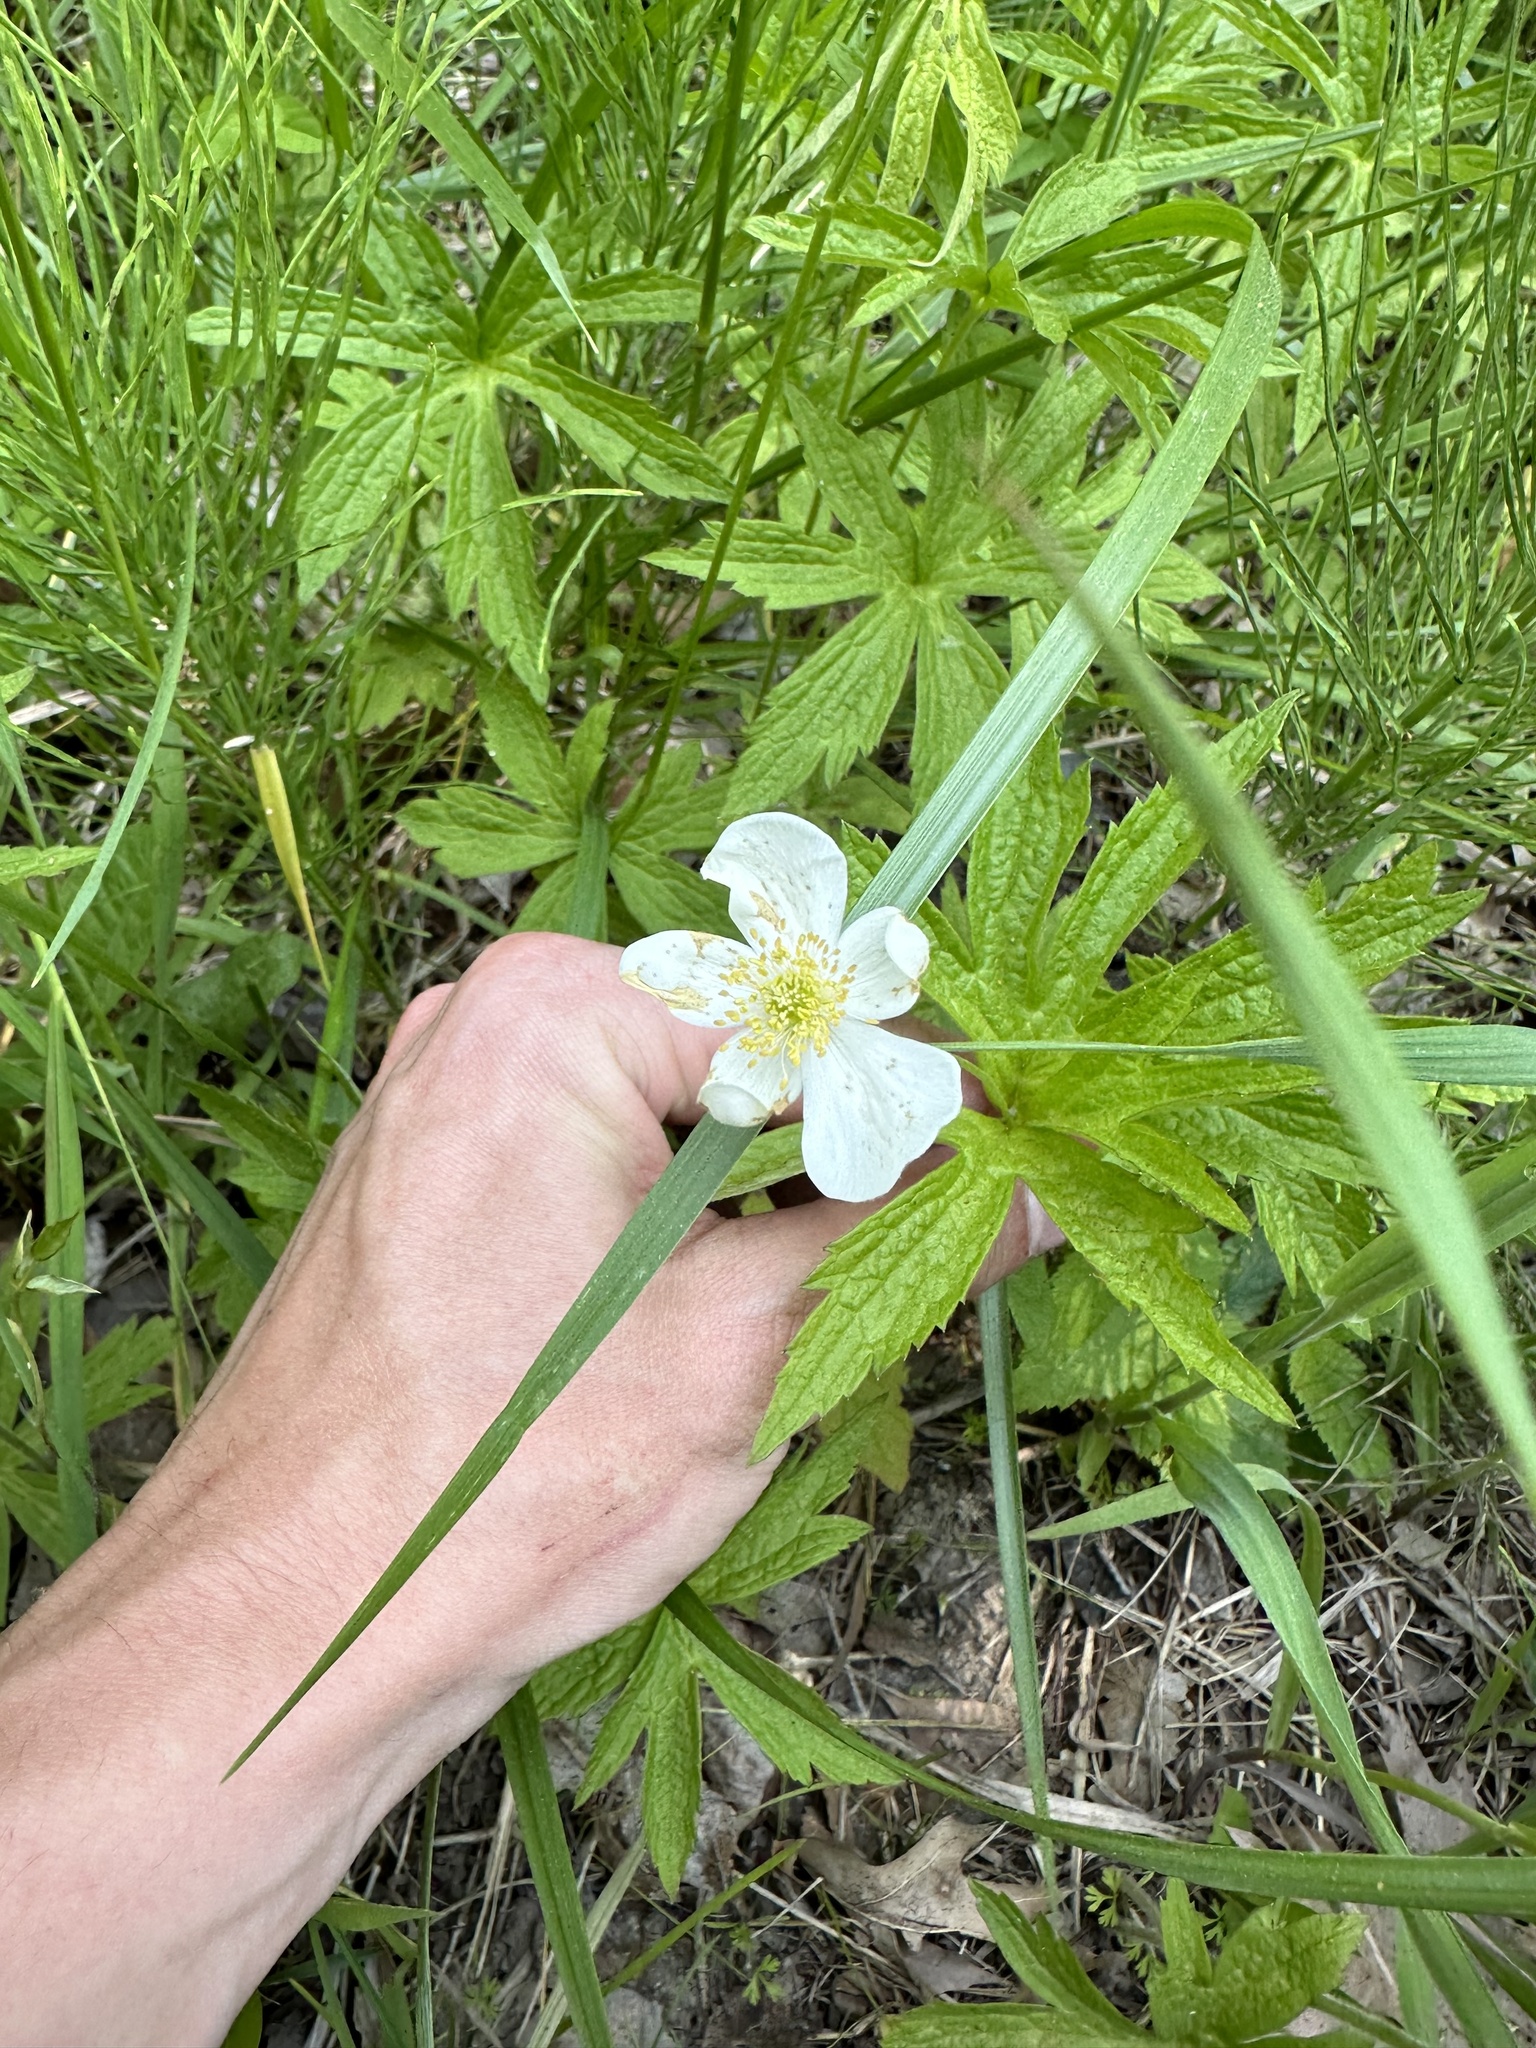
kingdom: Plantae
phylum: Tracheophyta
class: Magnoliopsida
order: Ranunculales
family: Ranunculaceae
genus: Anemonastrum
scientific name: Anemonastrum canadense
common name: Canada anemone
